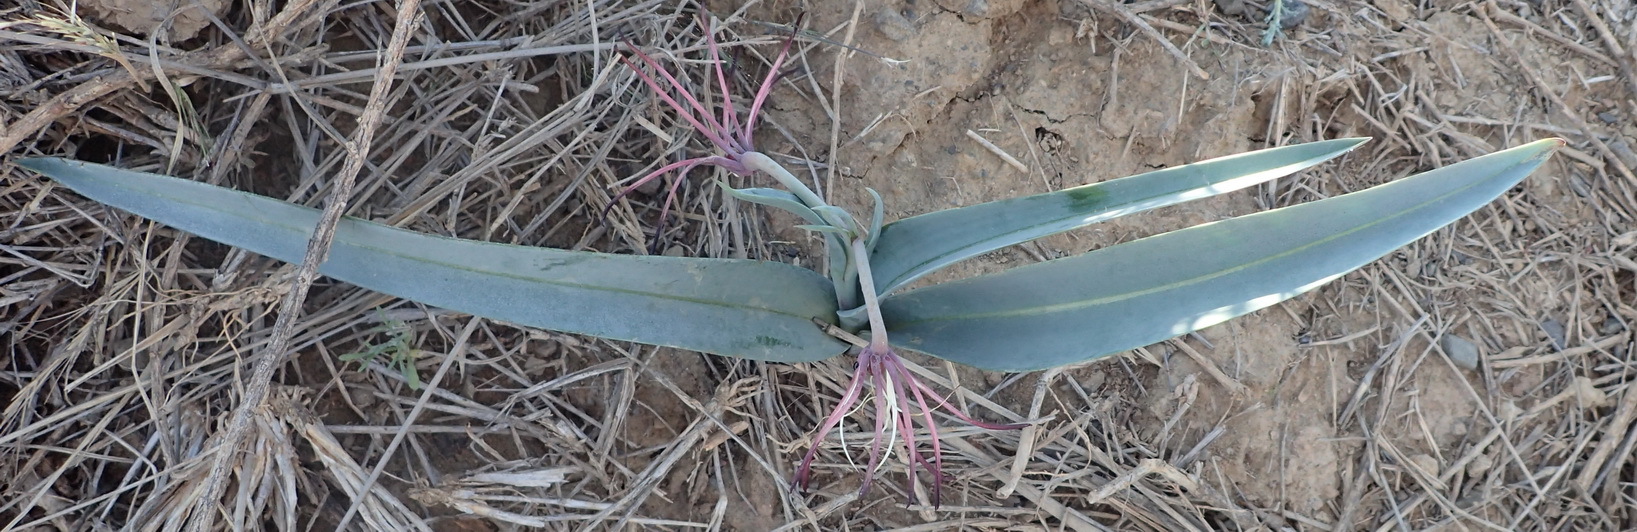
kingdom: Plantae
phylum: Tracheophyta
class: Liliopsida
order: Liliales
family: Colchicaceae
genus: Ornithoglossum
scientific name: Ornithoglossum undulatum
